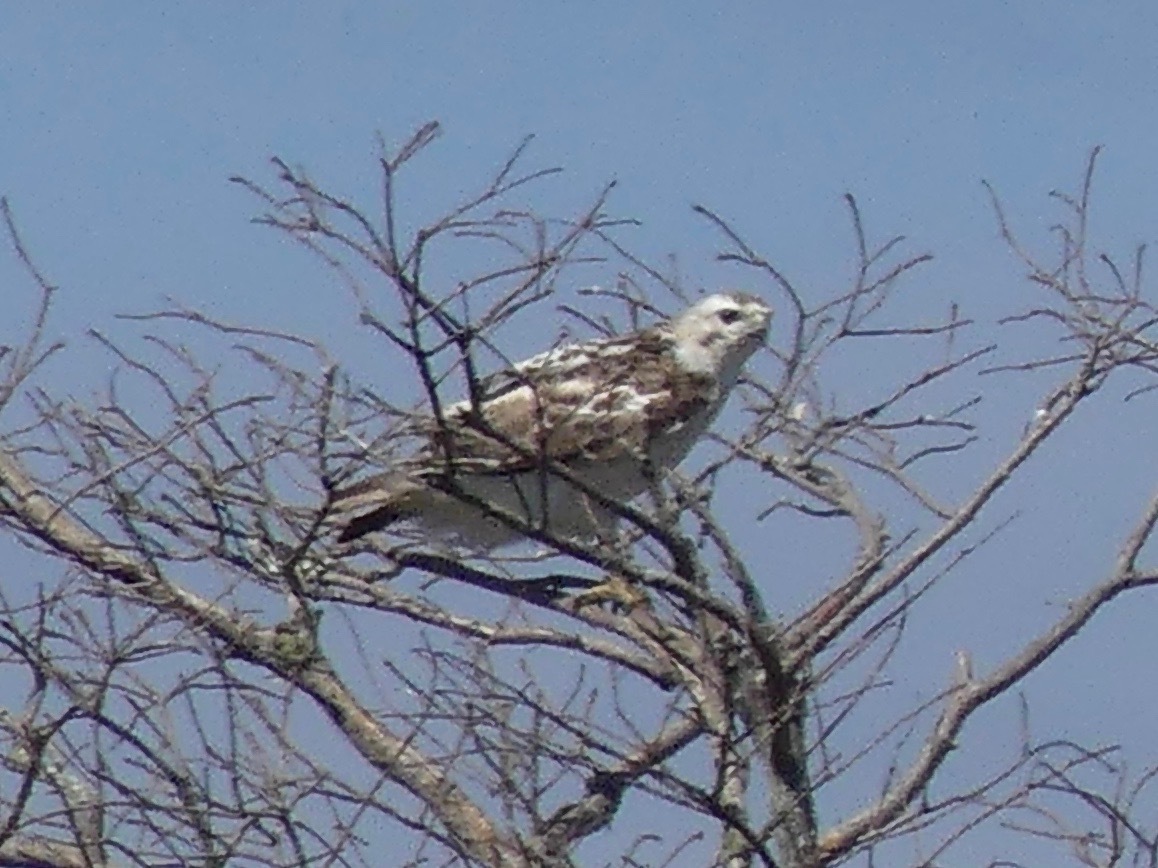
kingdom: Animalia
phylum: Chordata
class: Aves
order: Accipitriformes
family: Accipitridae
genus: Buteo
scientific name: Buteo jamaicensis
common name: Red-tailed hawk
